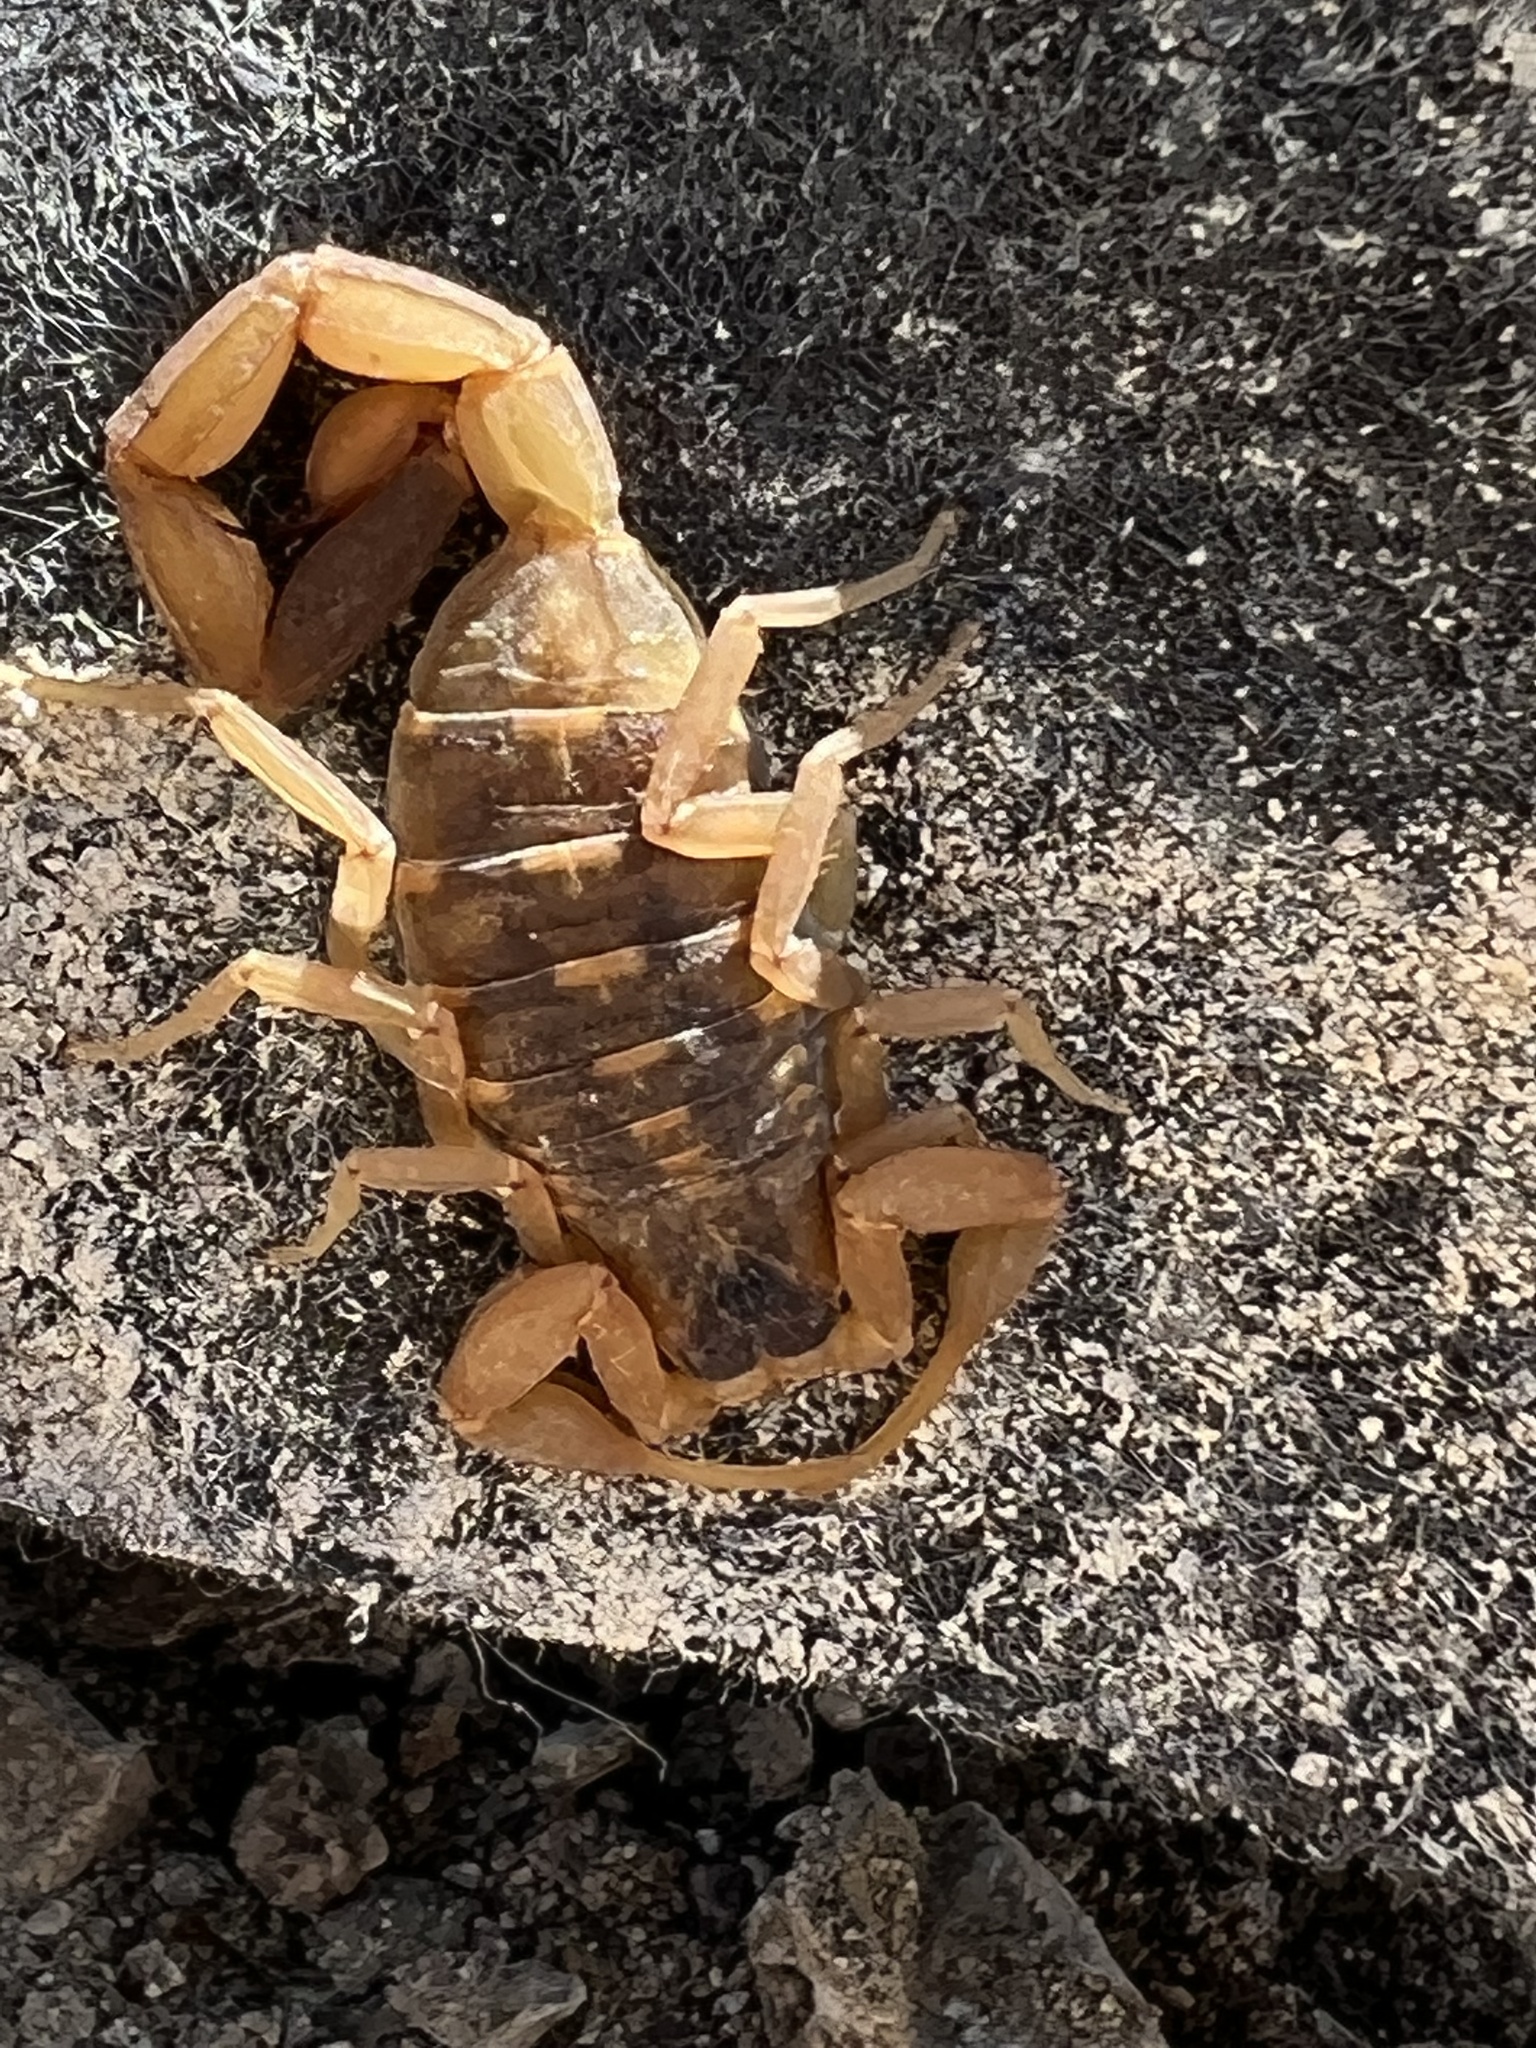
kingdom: Animalia
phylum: Arthropoda
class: Arachnida
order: Scorpiones
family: Buthidae
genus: Centruroides
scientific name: Centruroides vittatus
